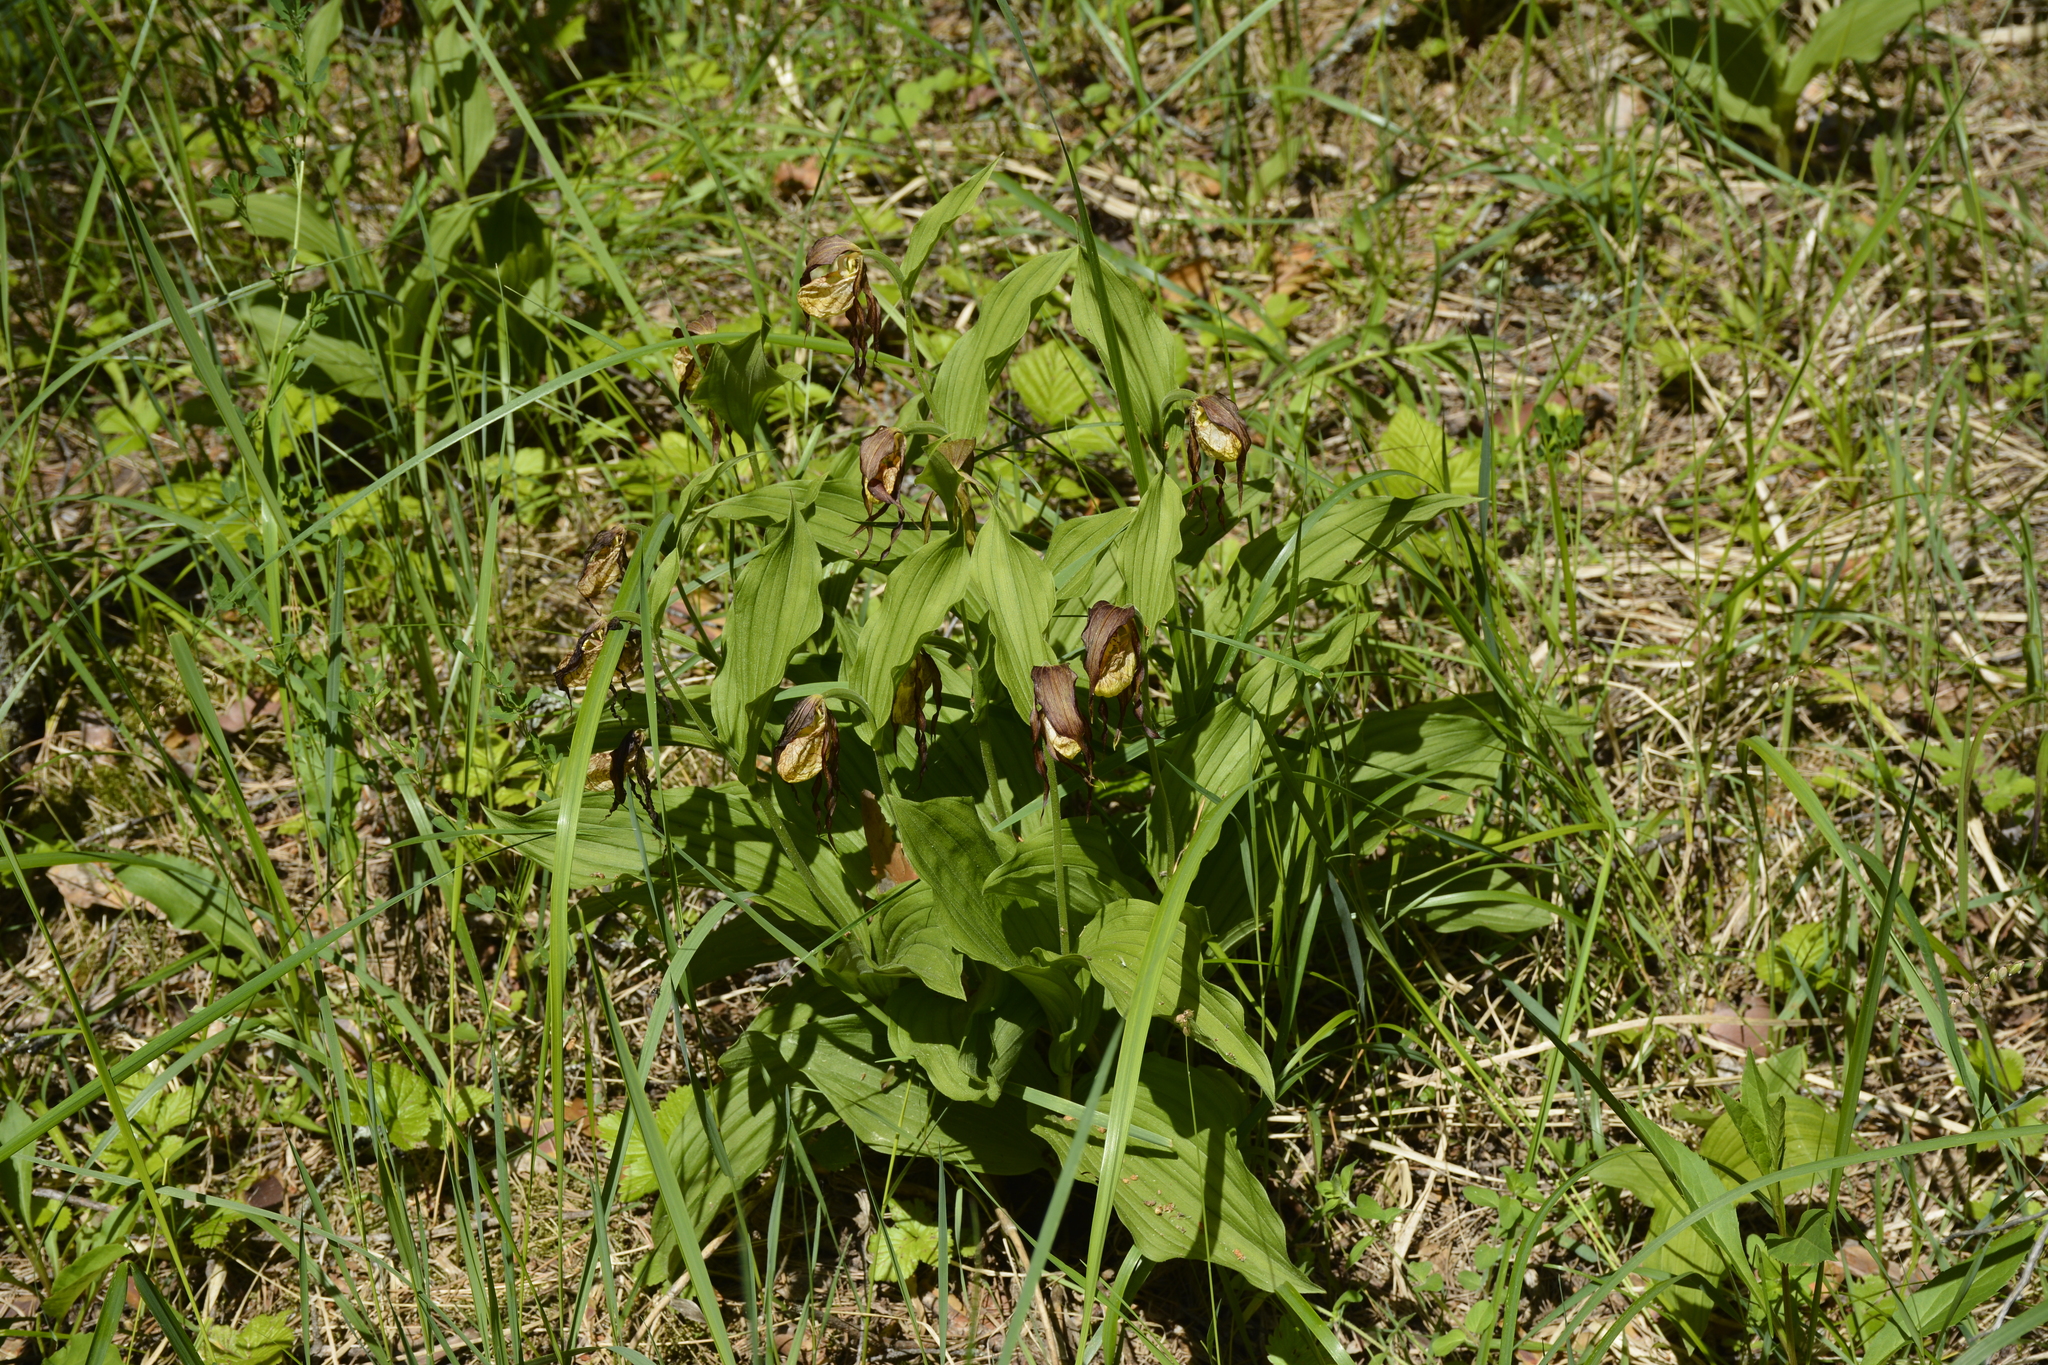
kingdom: Plantae
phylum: Tracheophyta
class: Liliopsida
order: Asparagales
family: Orchidaceae
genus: Cypripedium
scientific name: Cypripedium calceolus
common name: Lady's-slipper
